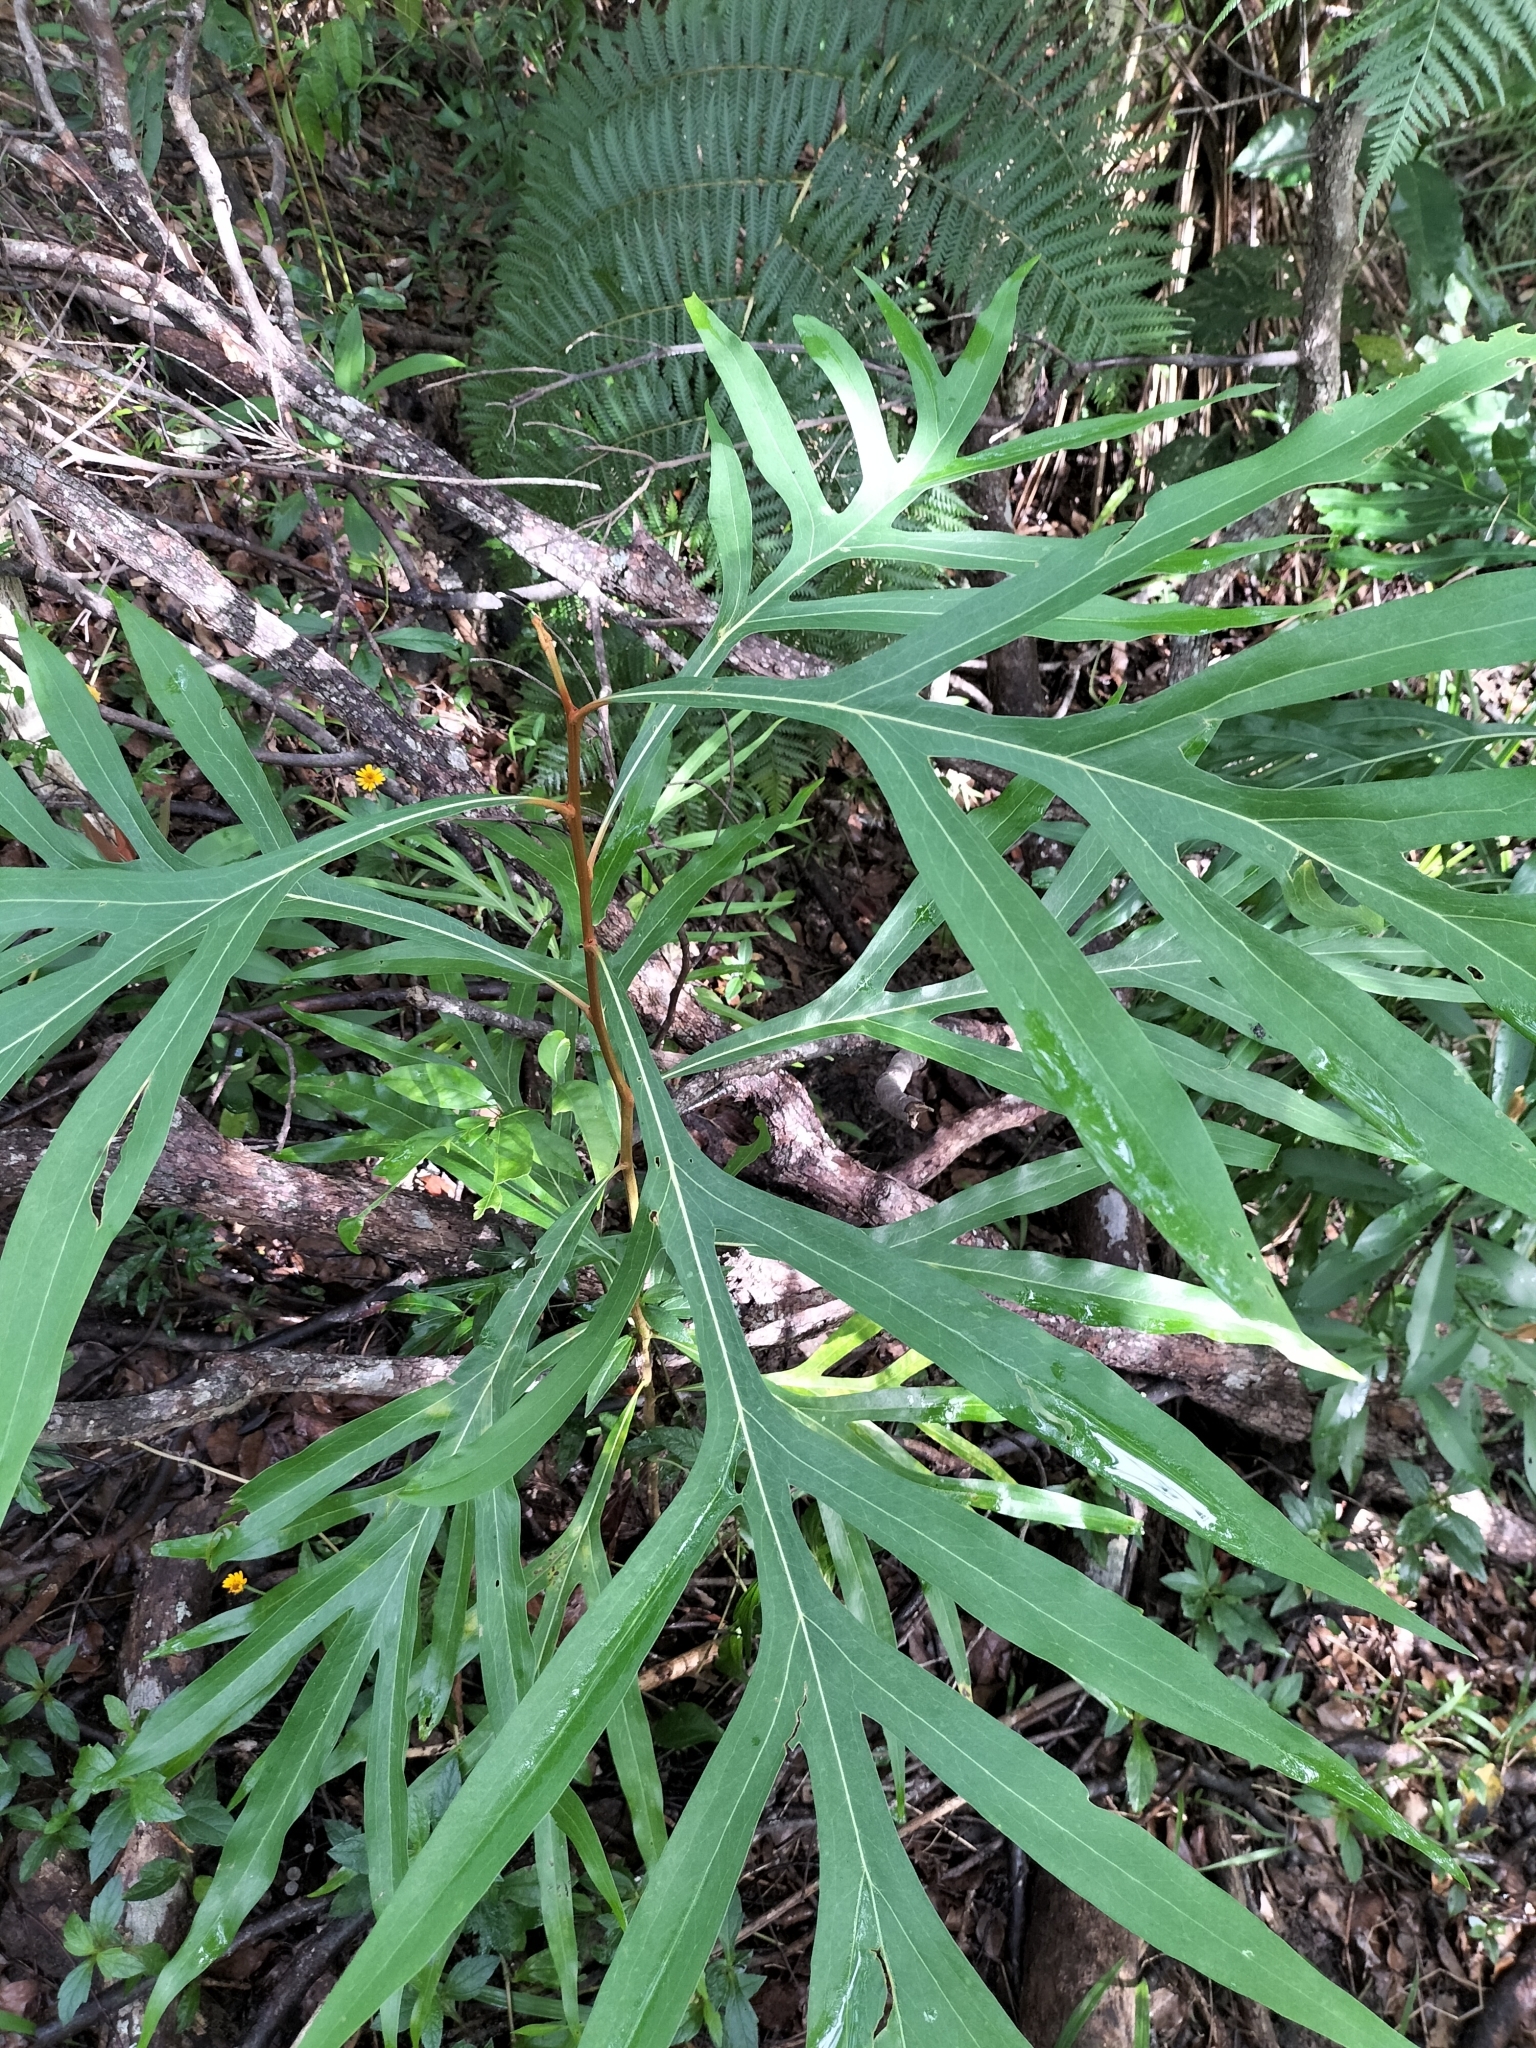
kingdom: Plantae
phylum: Tracheophyta
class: Magnoliopsida
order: Proteales
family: Proteaceae
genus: Grevillea
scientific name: Grevillea hilliana
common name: White silky-oak
